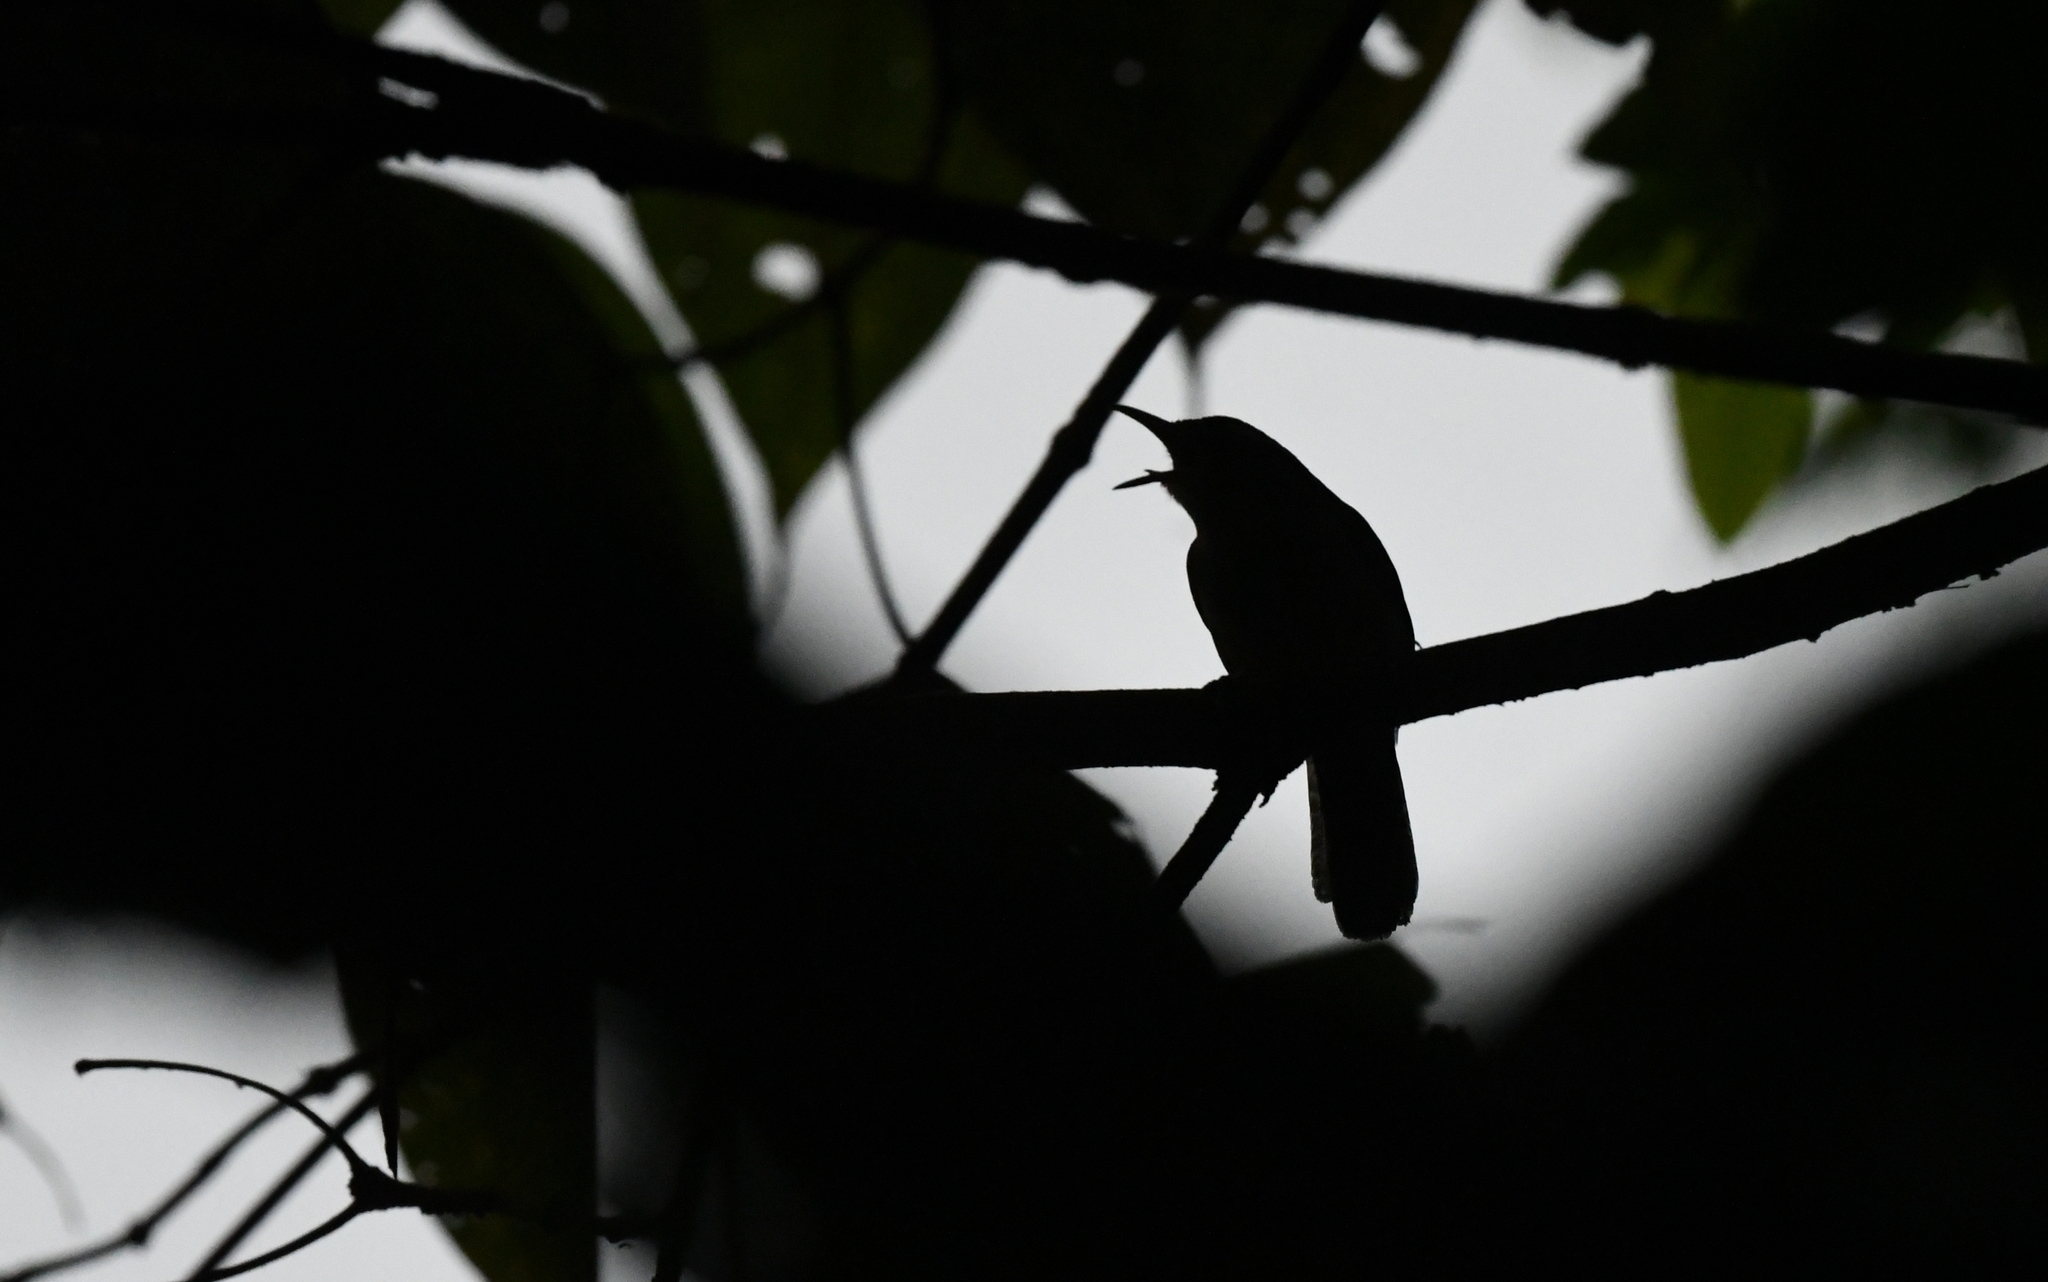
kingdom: Animalia
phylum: Chordata
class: Aves
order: Passeriformes
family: Troglodytidae
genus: Thryophilus
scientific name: Thryophilus nicefori
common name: Niceforo's wren
